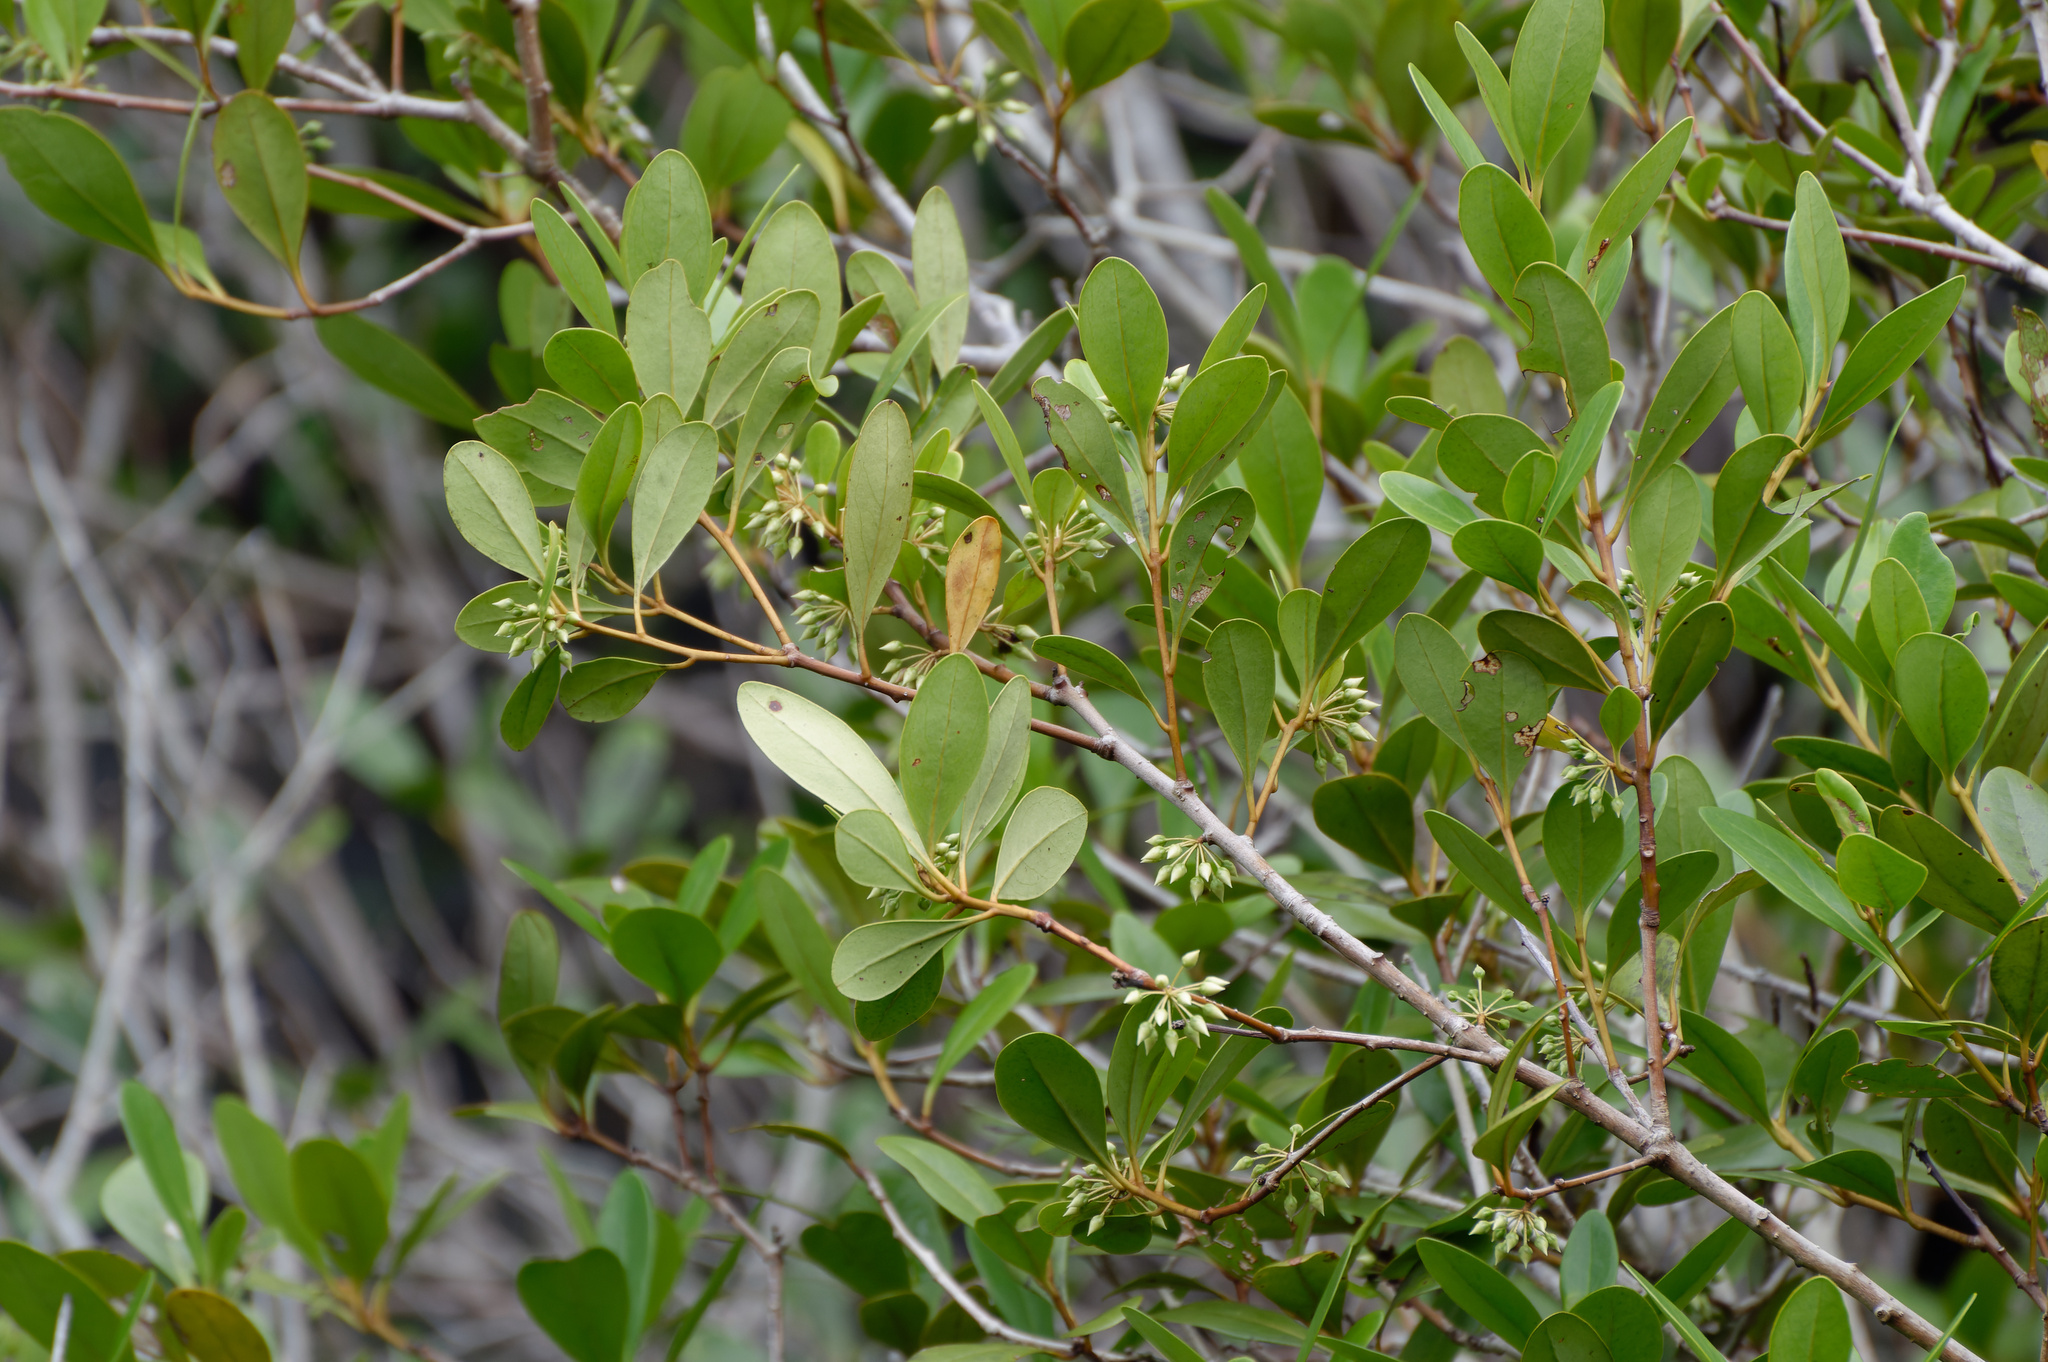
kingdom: Plantae
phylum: Tracheophyta
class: Magnoliopsida
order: Ericales
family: Primulaceae
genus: Aegiceras
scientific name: Aegiceras corniculatum
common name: River mangrove
